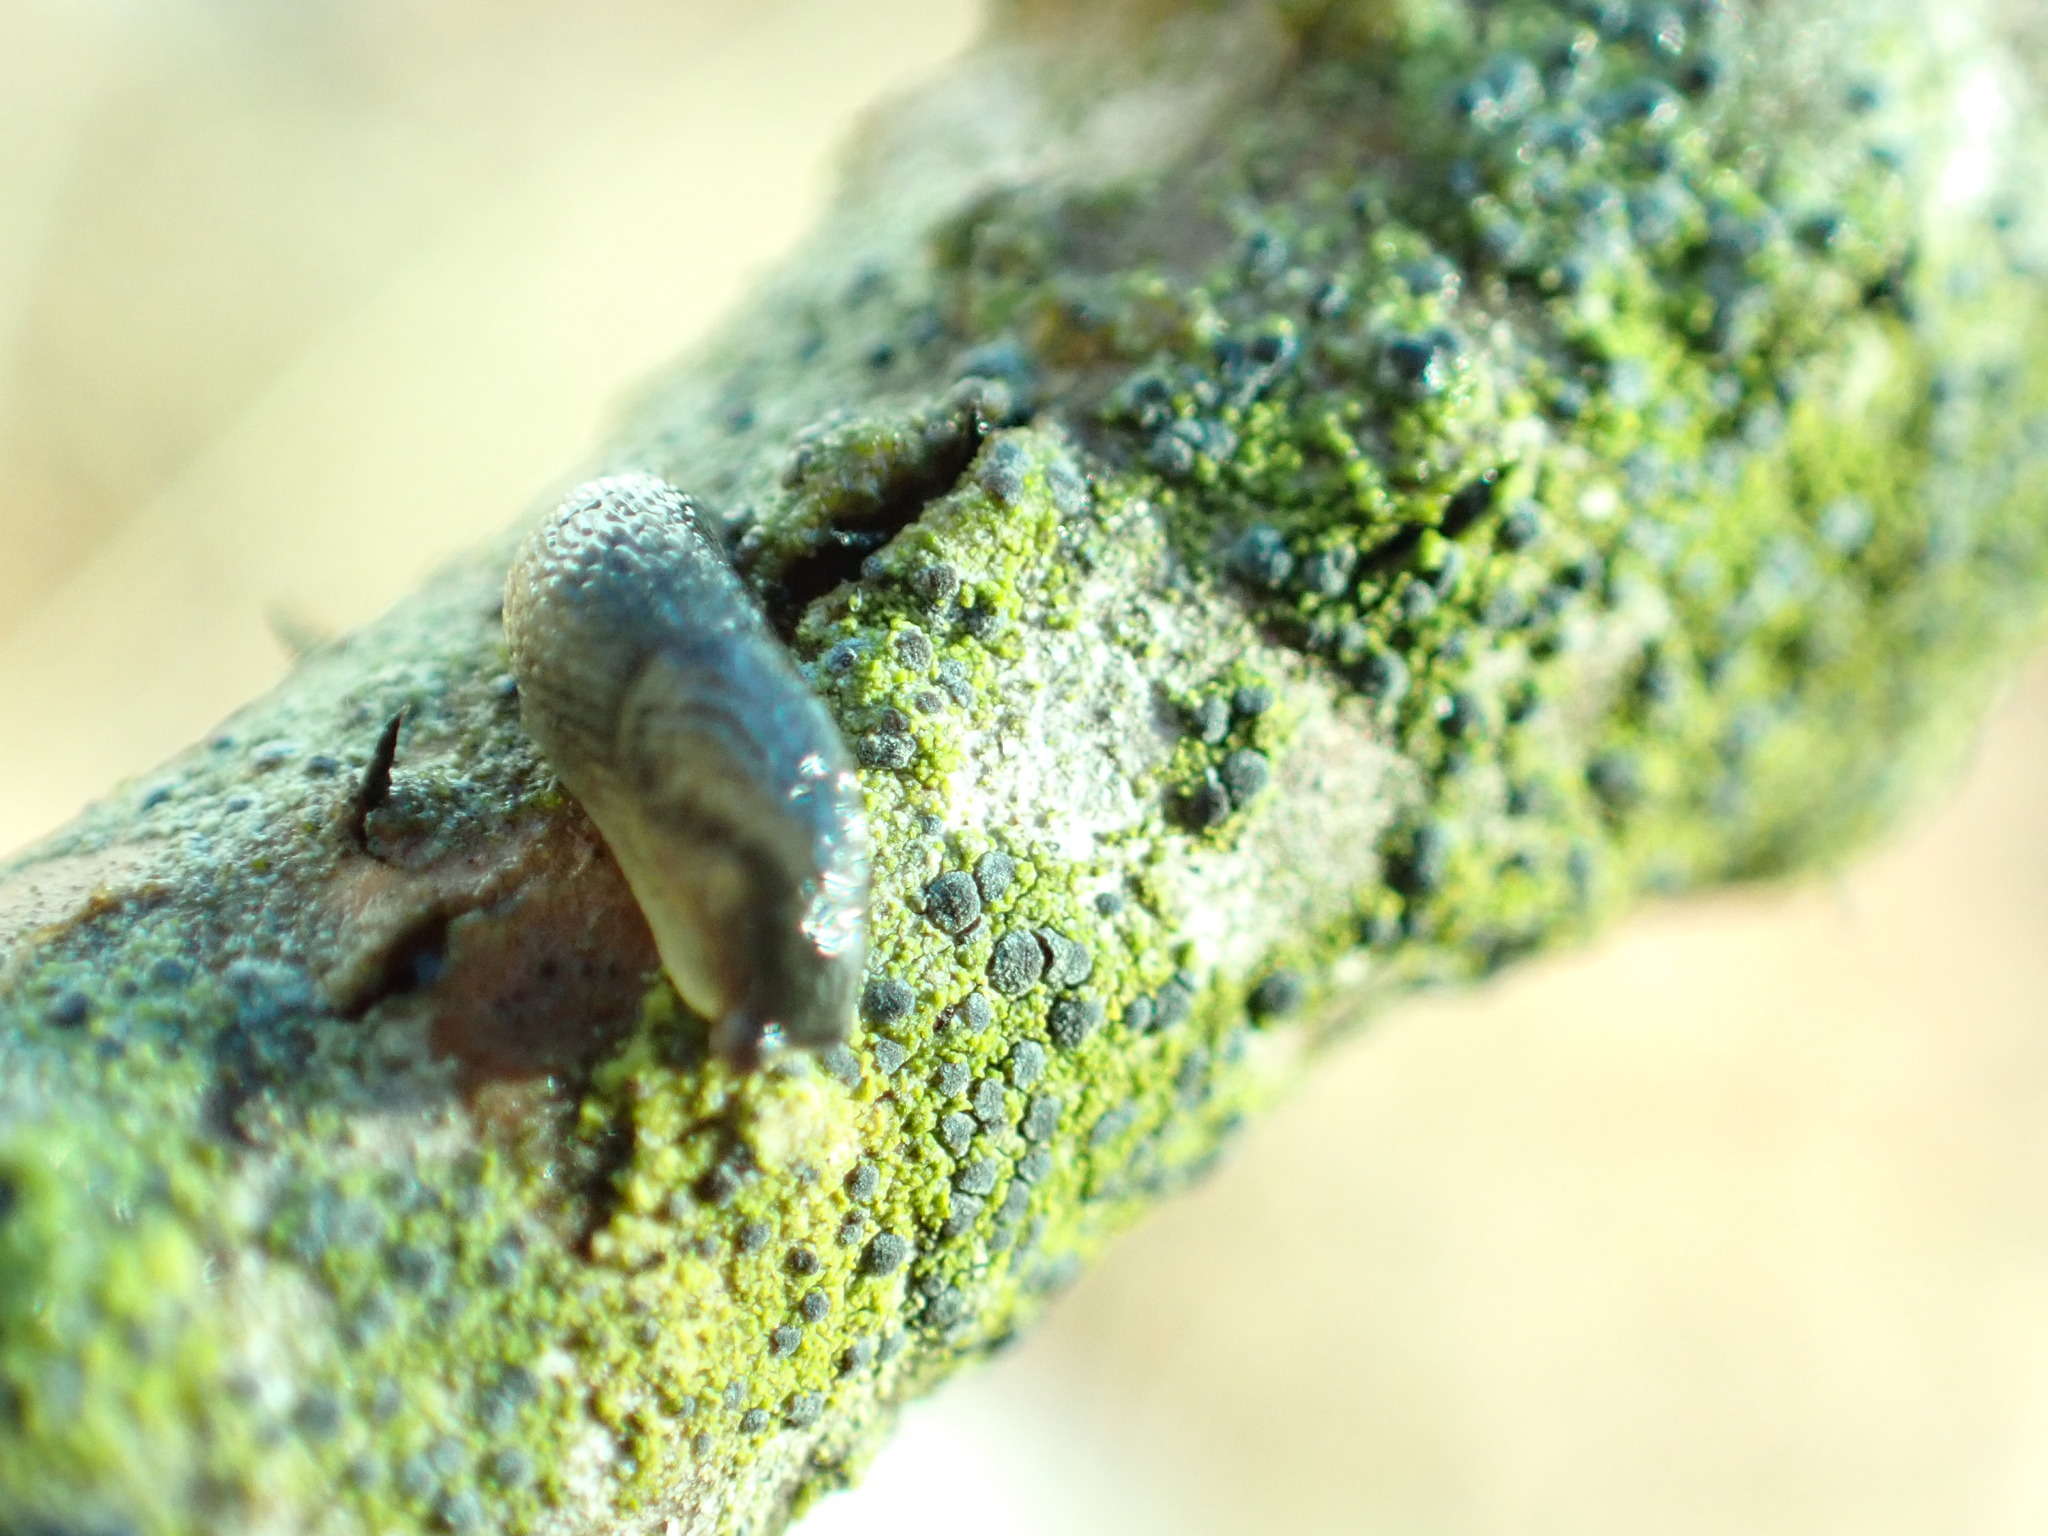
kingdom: Fungi
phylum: Ascomycota
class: Arthoniomycetes
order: Arthoniales
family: Chrysotrichaceae
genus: Chrysothrix
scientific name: Chrysothrix caesia
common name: Frosted comma lichen
